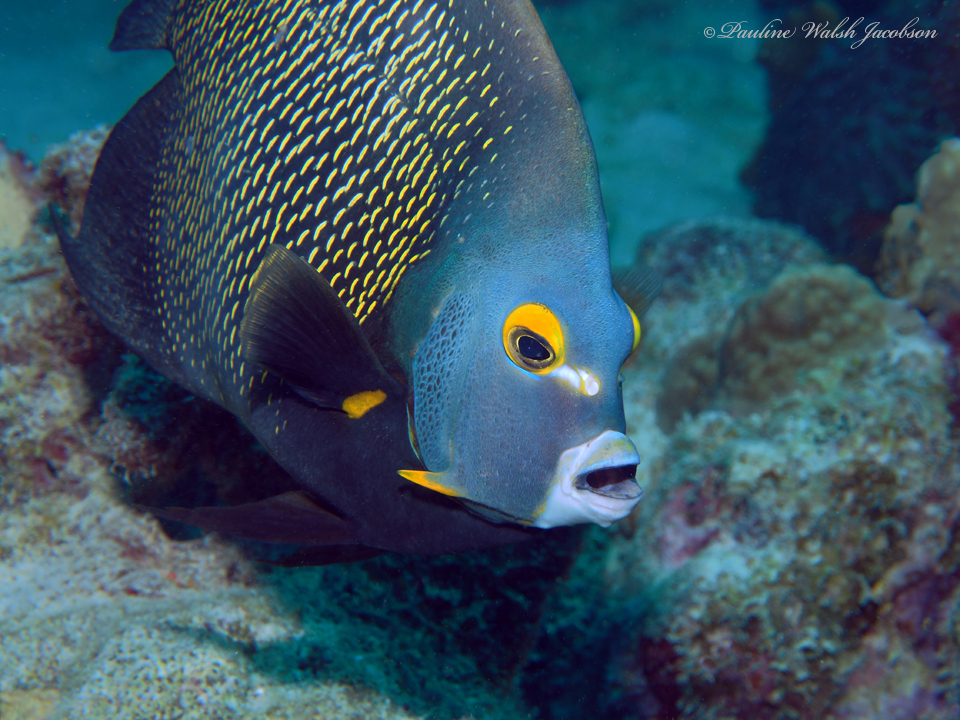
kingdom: Animalia
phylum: Chordata
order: Perciformes
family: Pomacanthidae
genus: Pomacanthus
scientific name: Pomacanthus paru
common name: French angelfish
